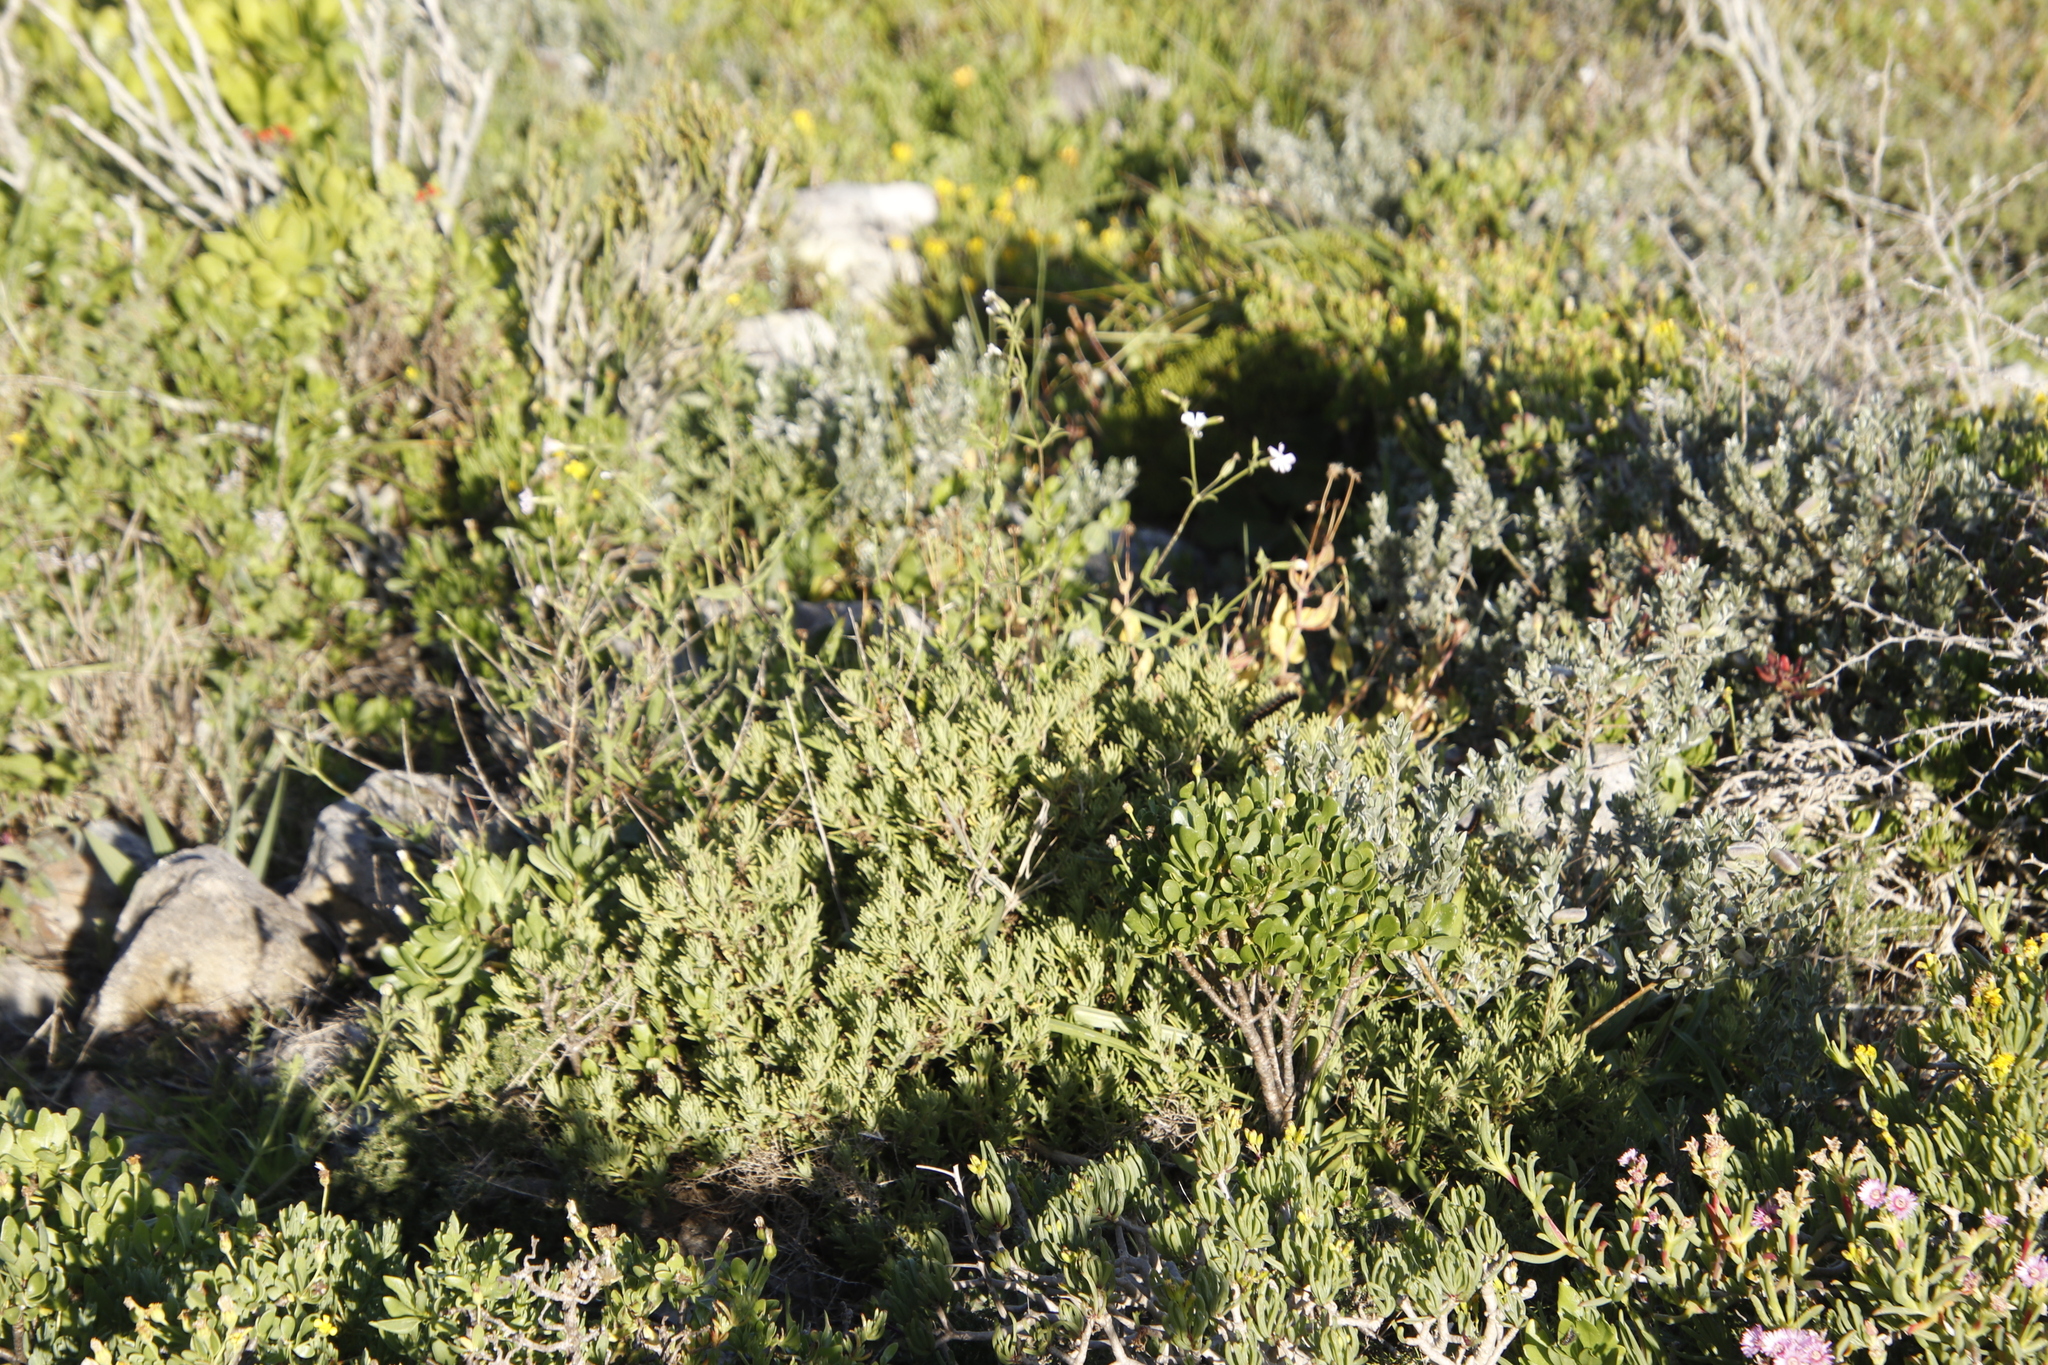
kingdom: Plantae
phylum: Tracheophyta
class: Magnoliopsida
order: Caryophyllales
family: Caryophyllaceae
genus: Silene
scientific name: Silene rigens
